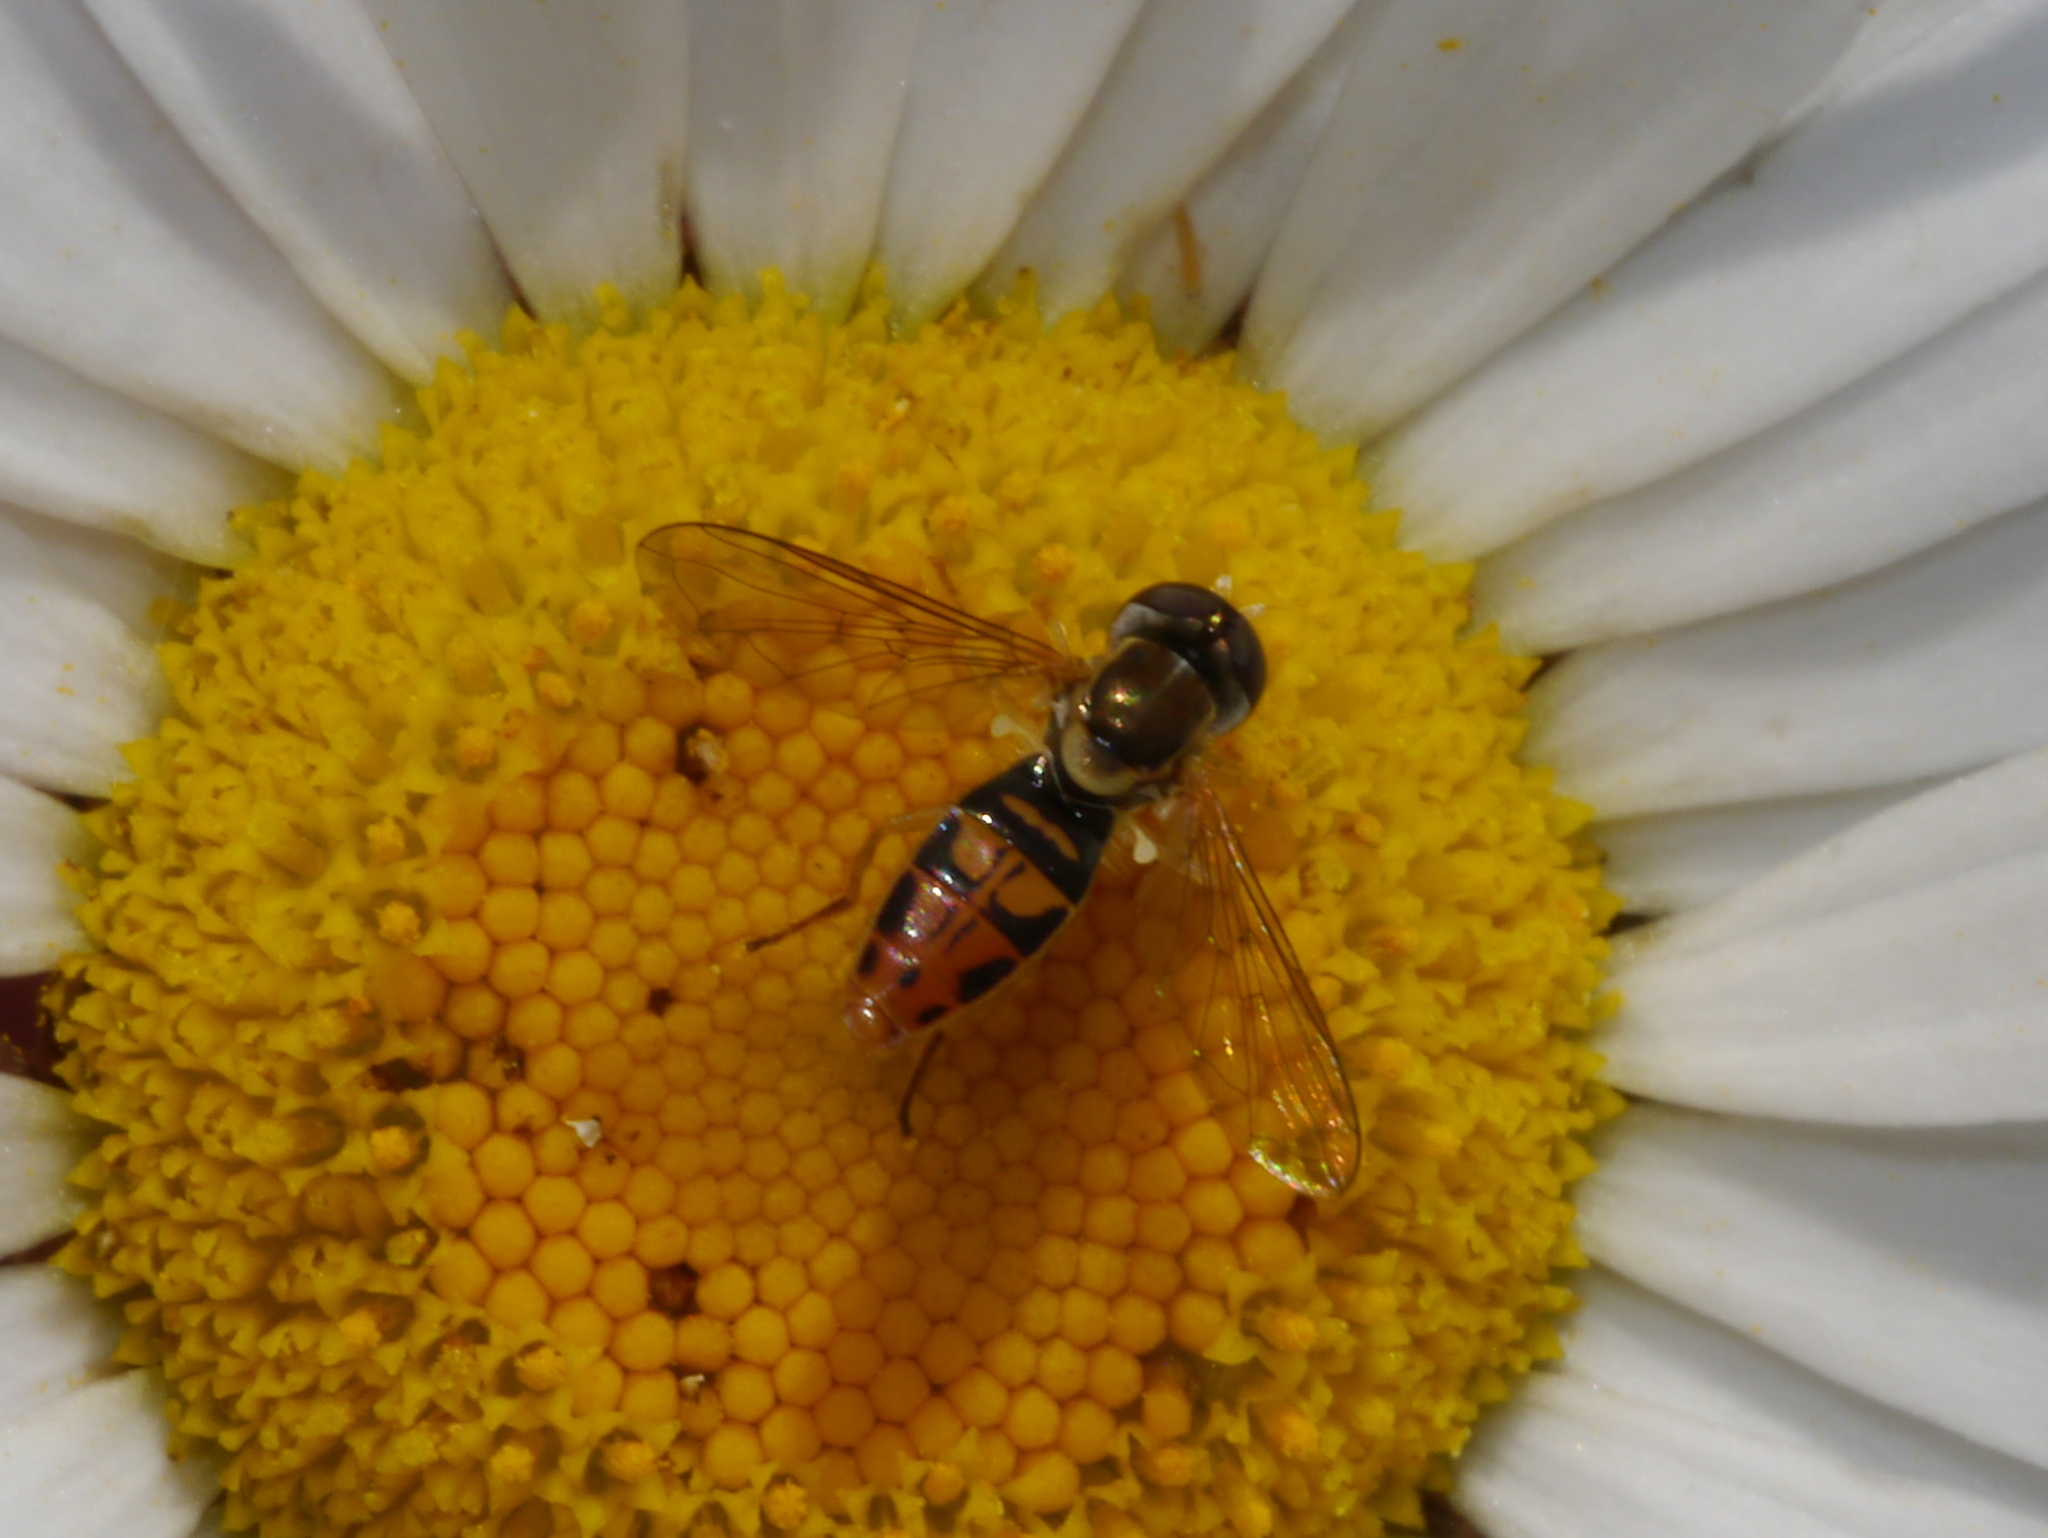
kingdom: Animalia
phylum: Arthropoda
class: Insecta
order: Diptera
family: Syrphidae
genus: Toxomerus
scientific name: Toxomerus marginatus
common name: Syrphid fly
